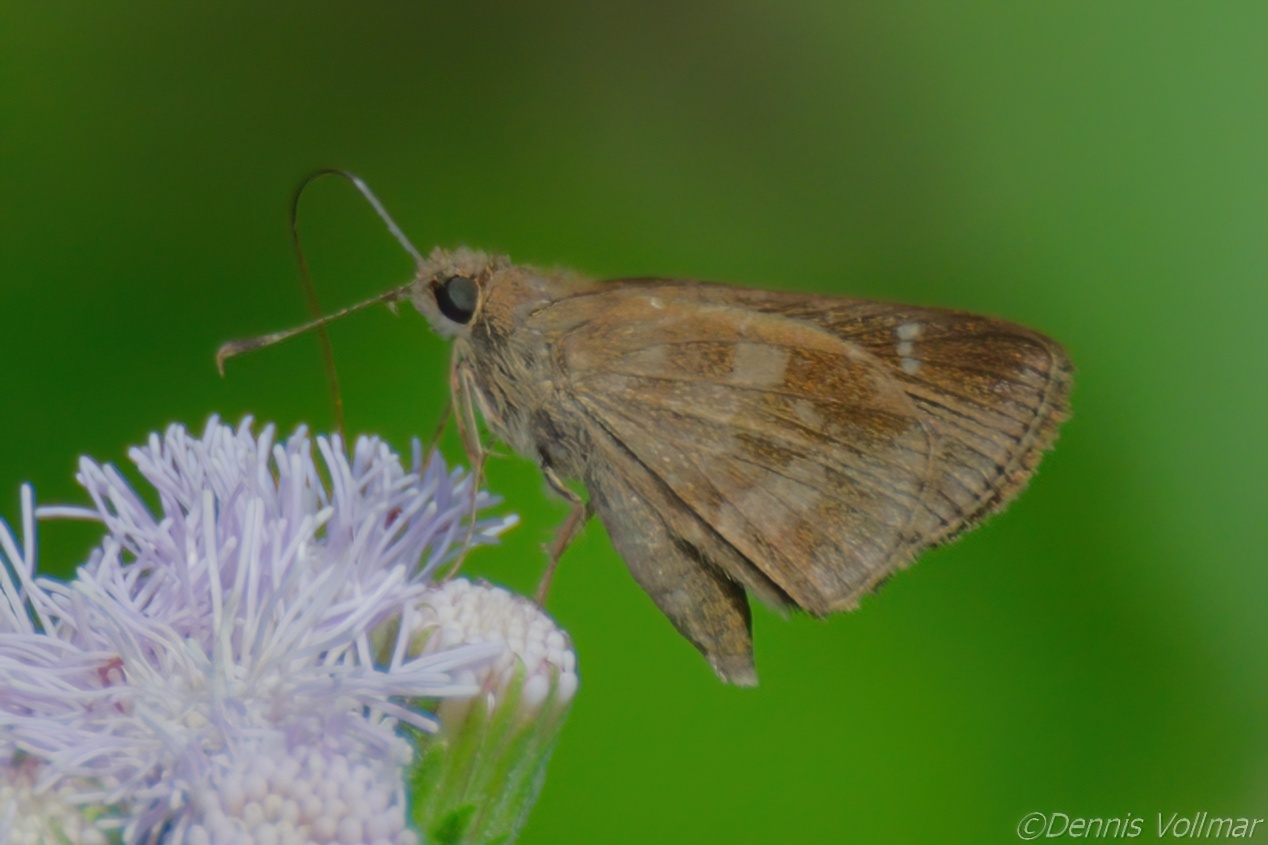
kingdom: Animalia
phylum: Arthropoda
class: Insecta
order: Lepidoptera
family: Hesperiidae
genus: Cymaenes
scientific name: Cymaenes
